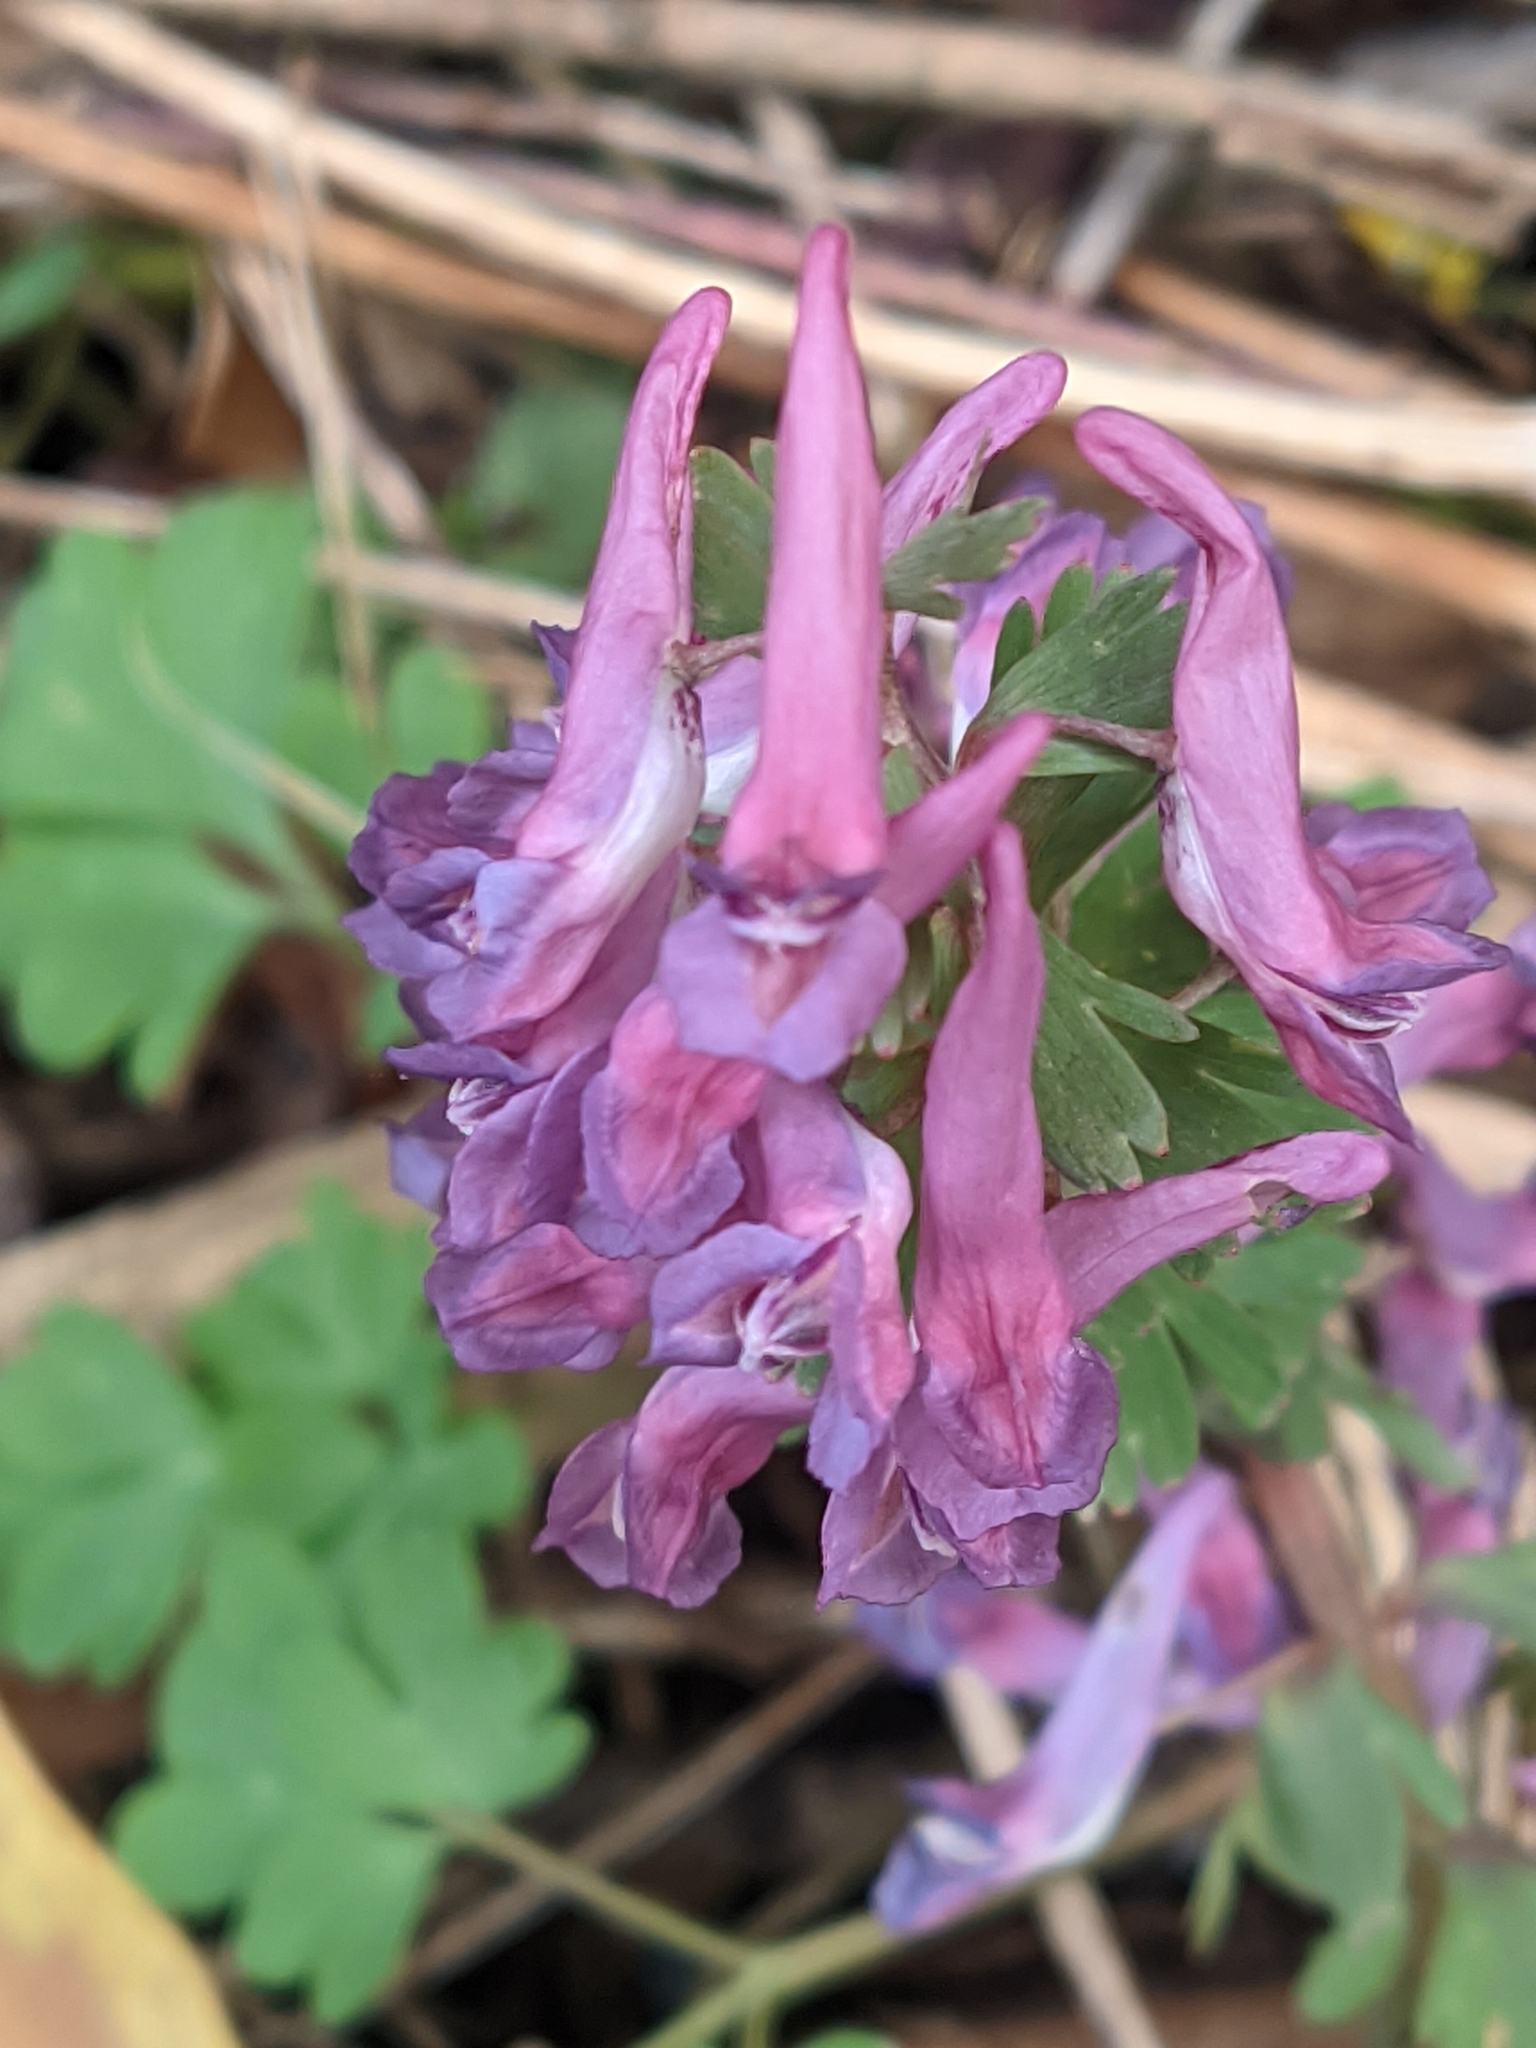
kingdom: Plantae
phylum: Tracheophyta
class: Magnoliopsida
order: Ranunculales
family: Papaveraceae
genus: Corydalis
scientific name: Corydalis solida
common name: Bird-in-a-bush
